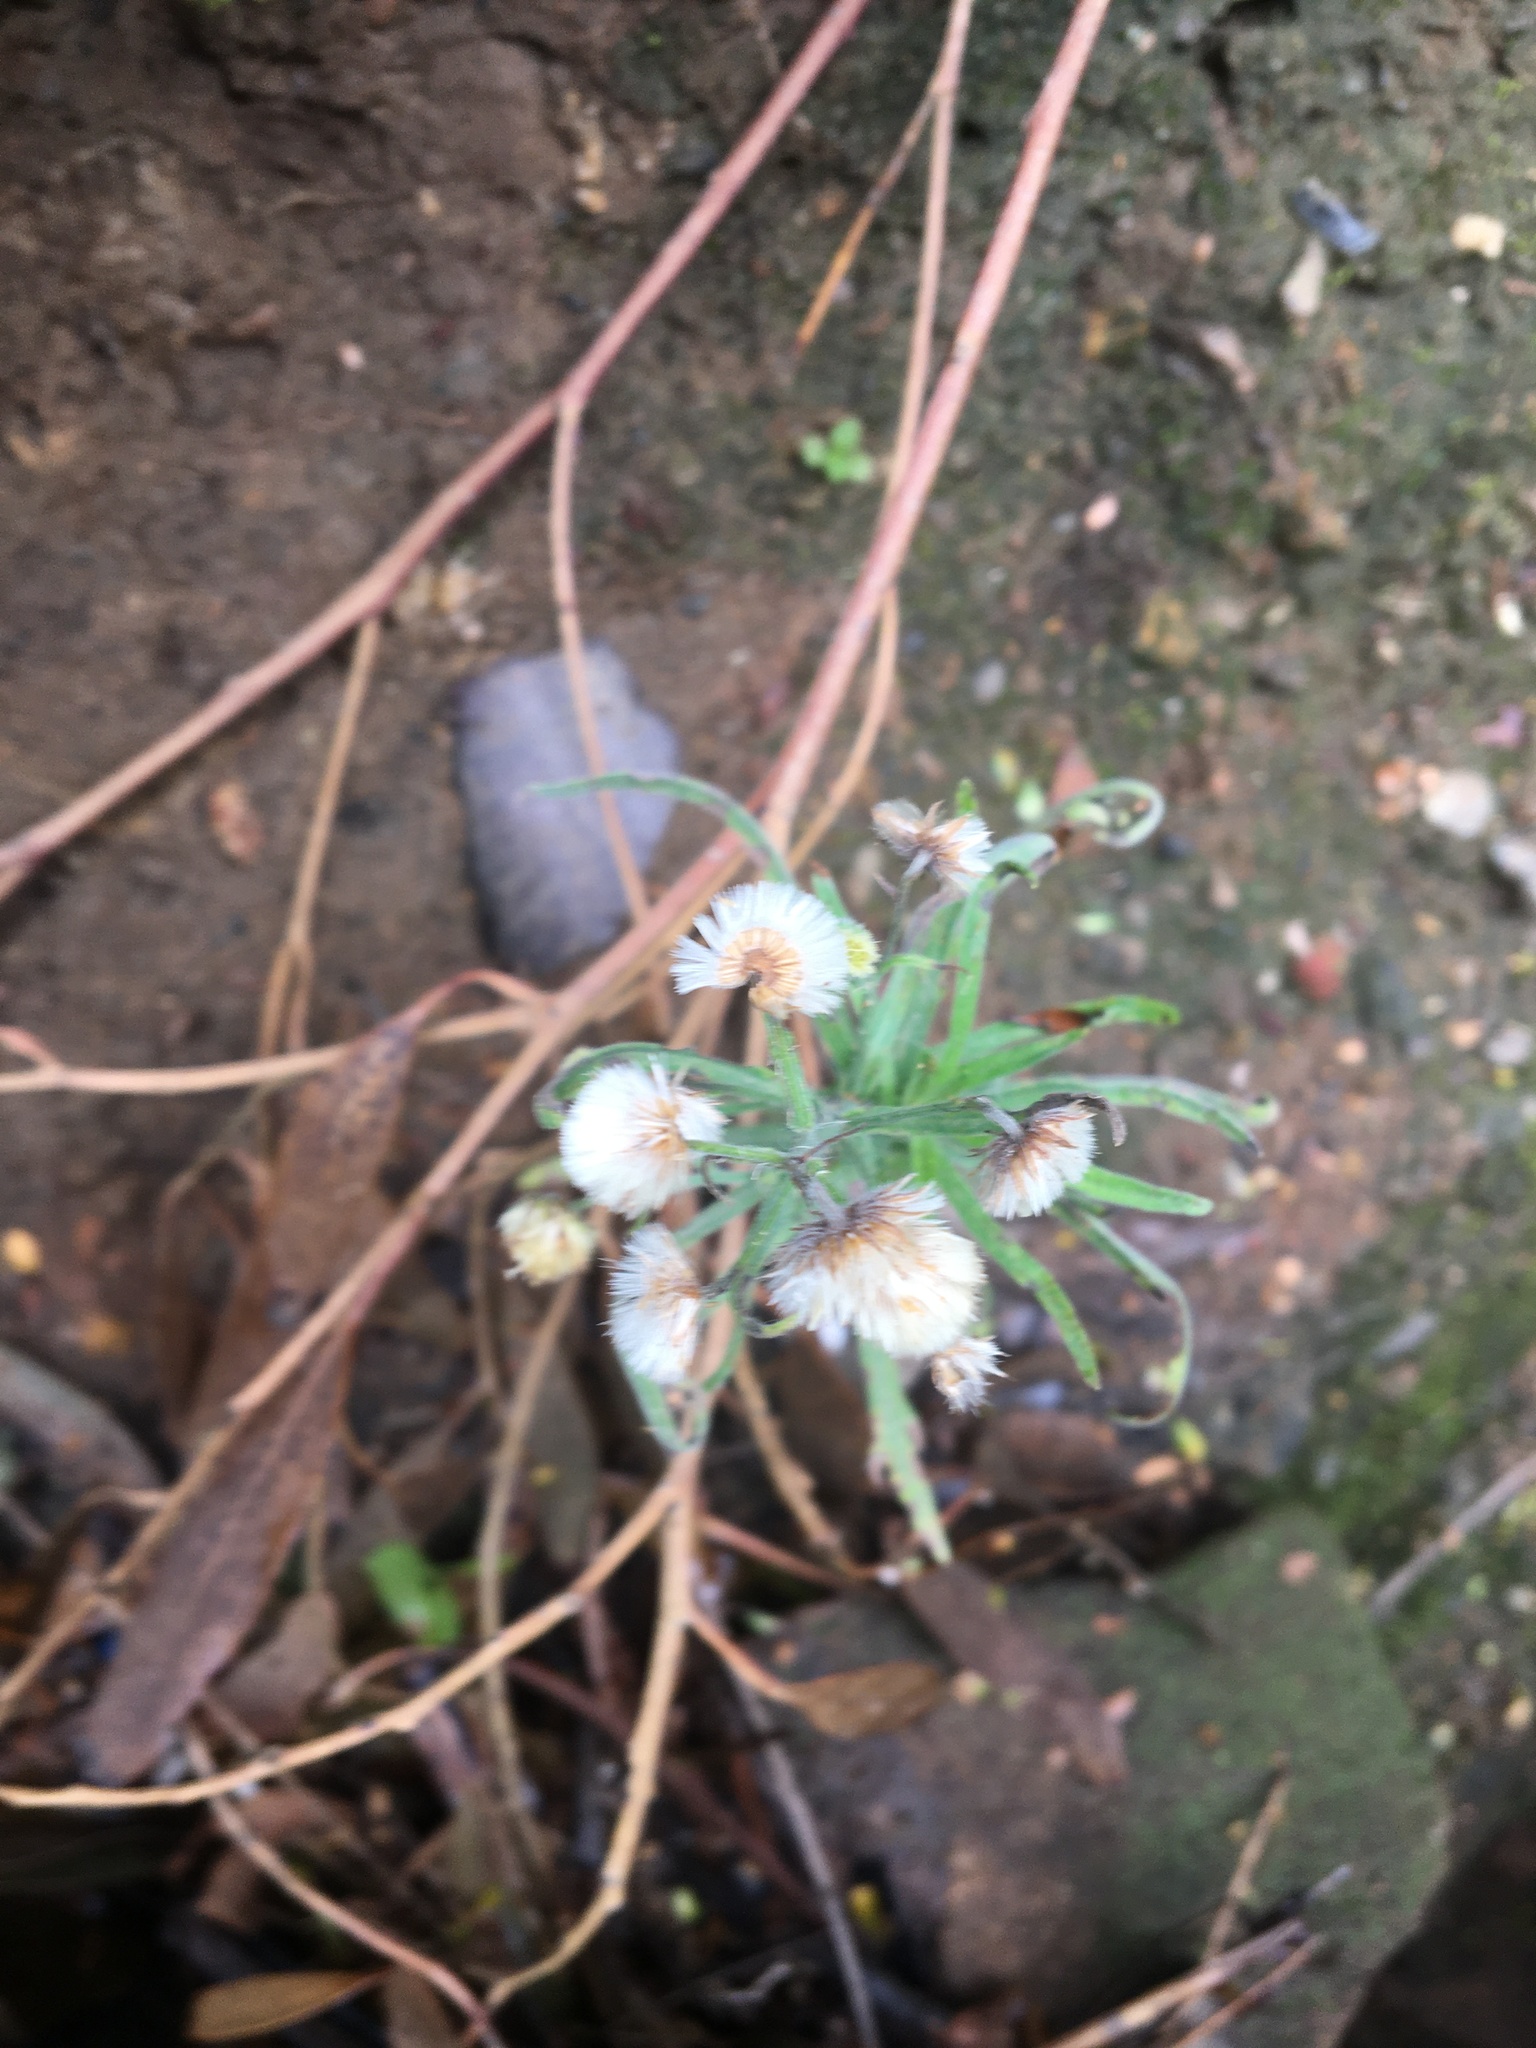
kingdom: Plantae
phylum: Tracheophyta
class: Magnoliopsida
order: Asterales
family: Asteraceae
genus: Erigeron
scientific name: Erigeron bonariensis
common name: Argentine fleabane
